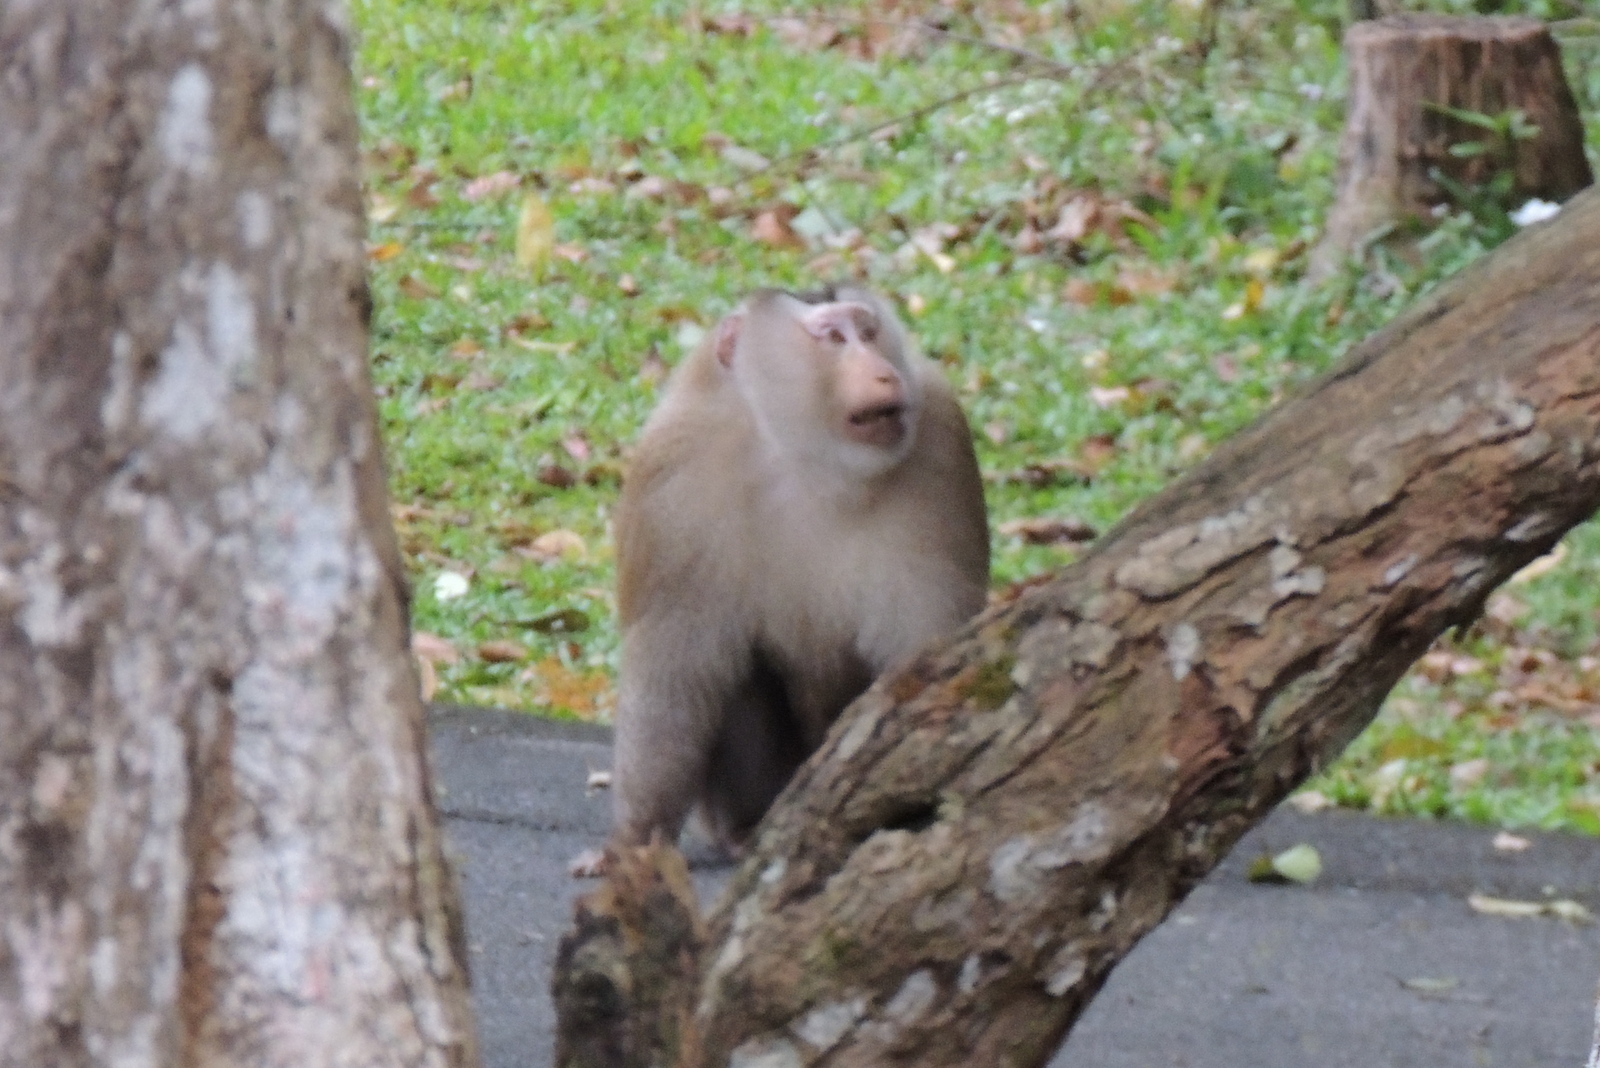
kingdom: Animalia
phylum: Chordata
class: Mammalia
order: Primates
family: Cercopithecidae
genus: Macaca
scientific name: Macaca leonina
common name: Northern pig-tailed macaque
